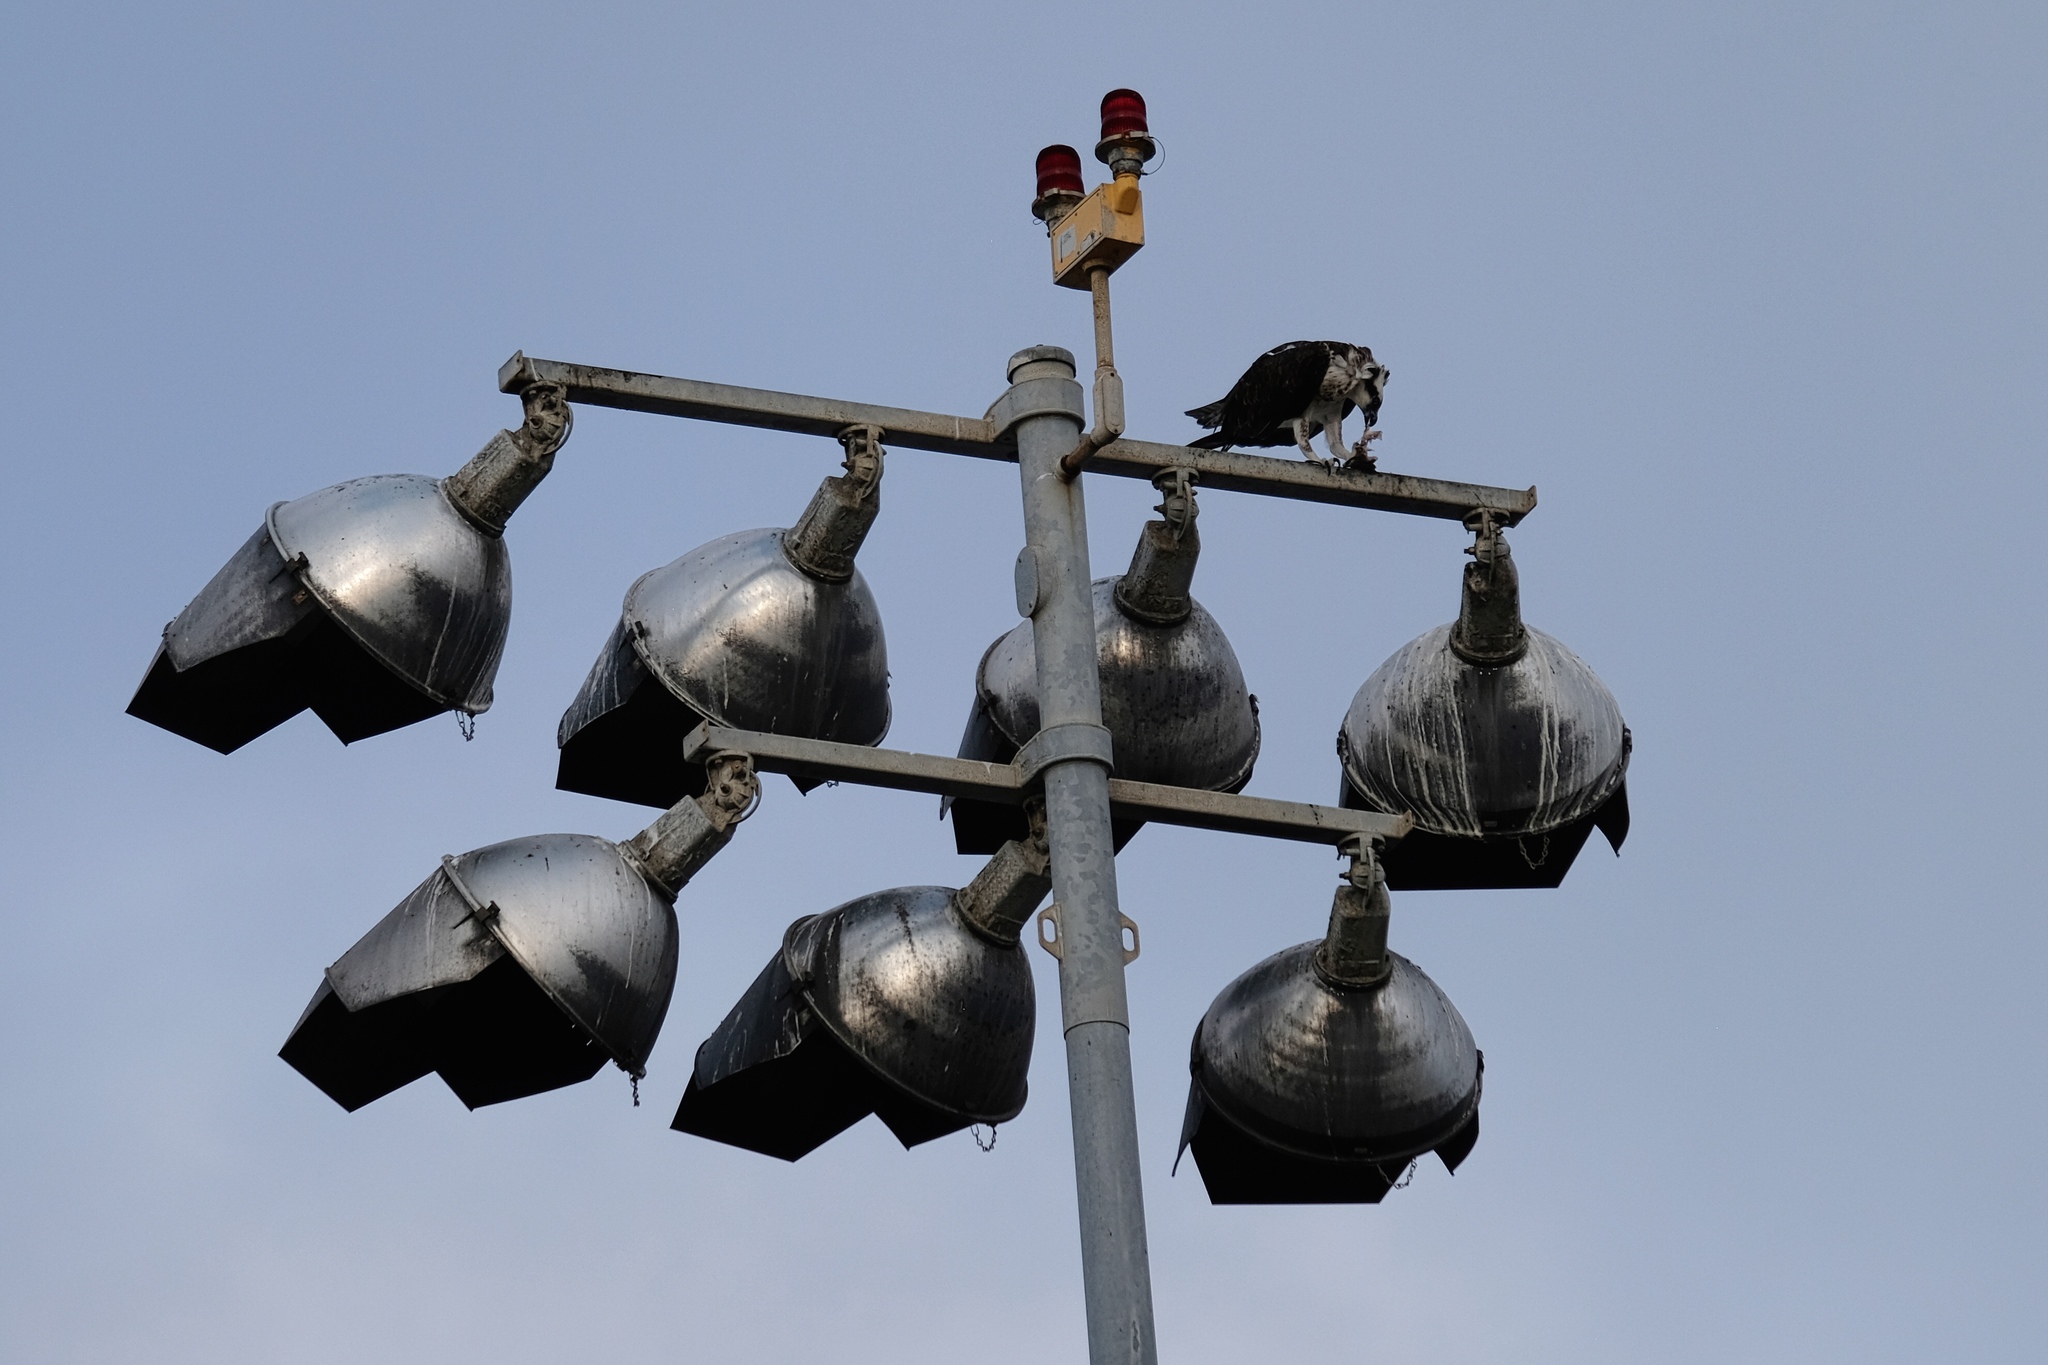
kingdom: Animalia
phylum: Chordata
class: Aves
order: Accipitriformes
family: Pandionidae
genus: Pandion
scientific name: Pandion haliaetus
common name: Osprey
